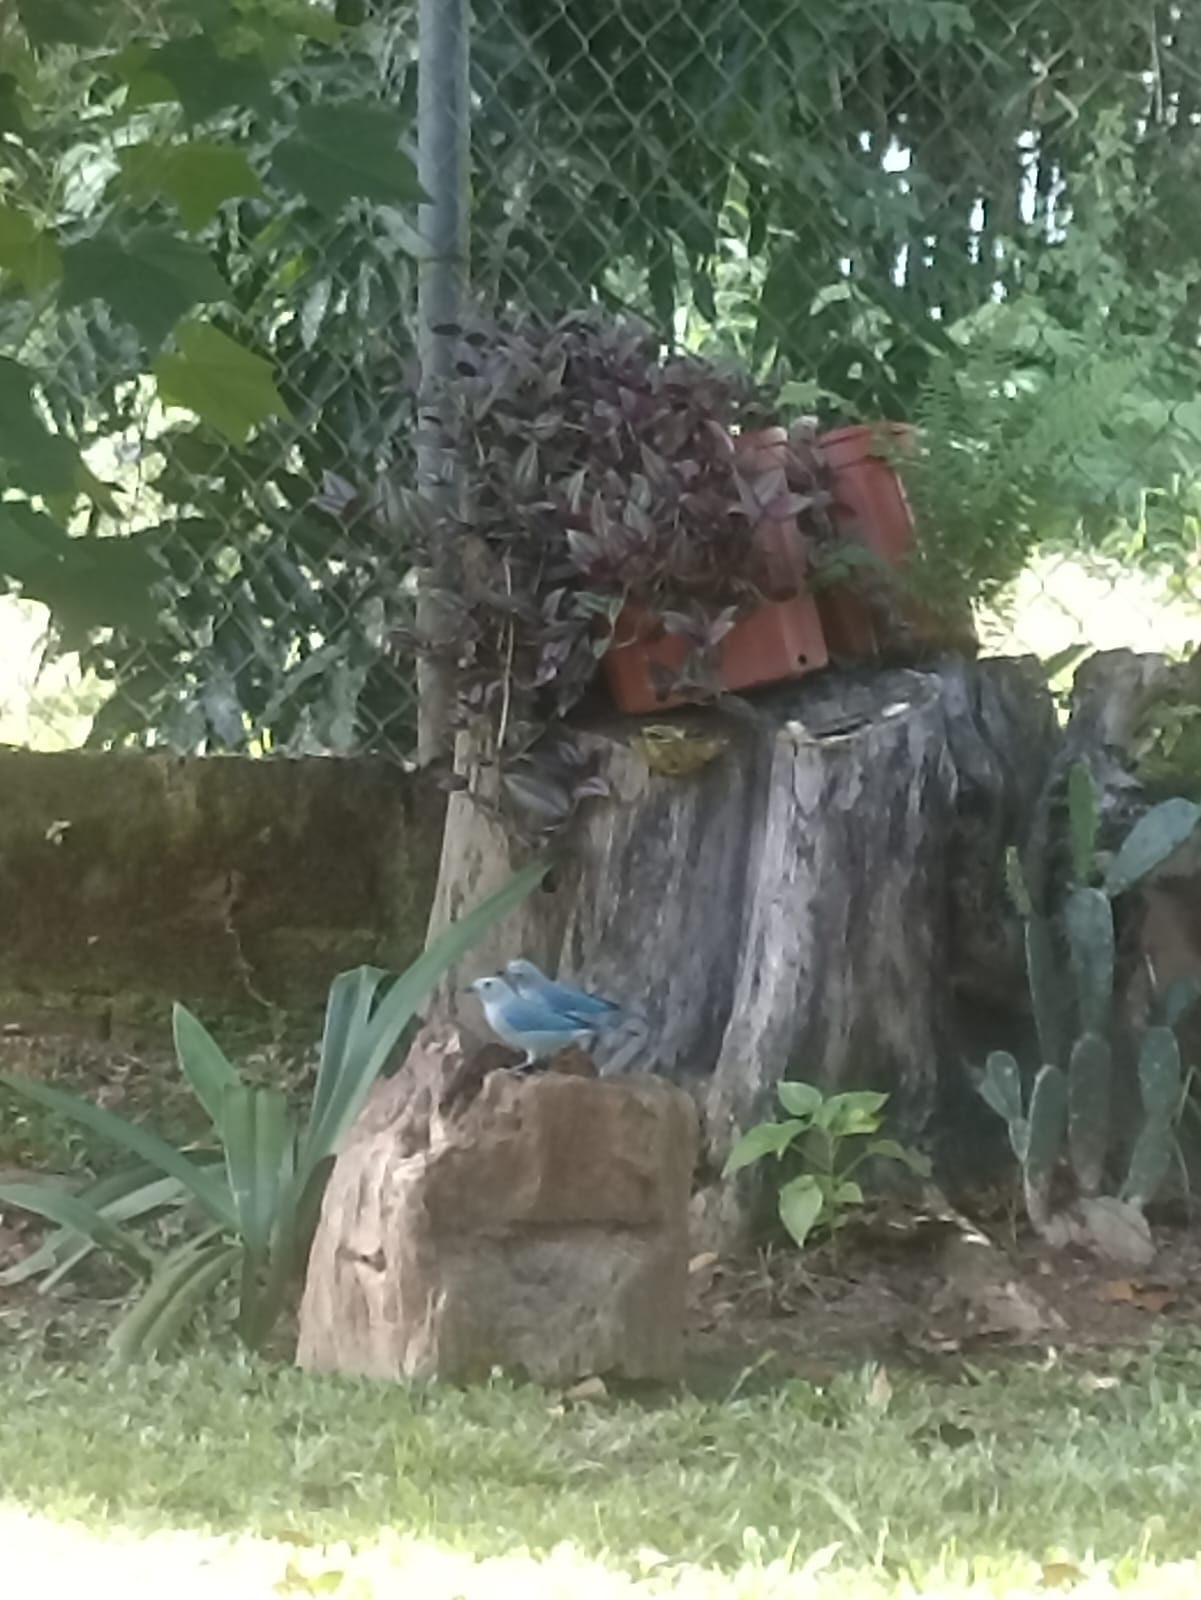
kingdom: Animalia
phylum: Chordata
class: Aves
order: Passeriformes
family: Thraupidae
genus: Thraupis
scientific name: Thraupis episcopus
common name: Blue-grey tanager
